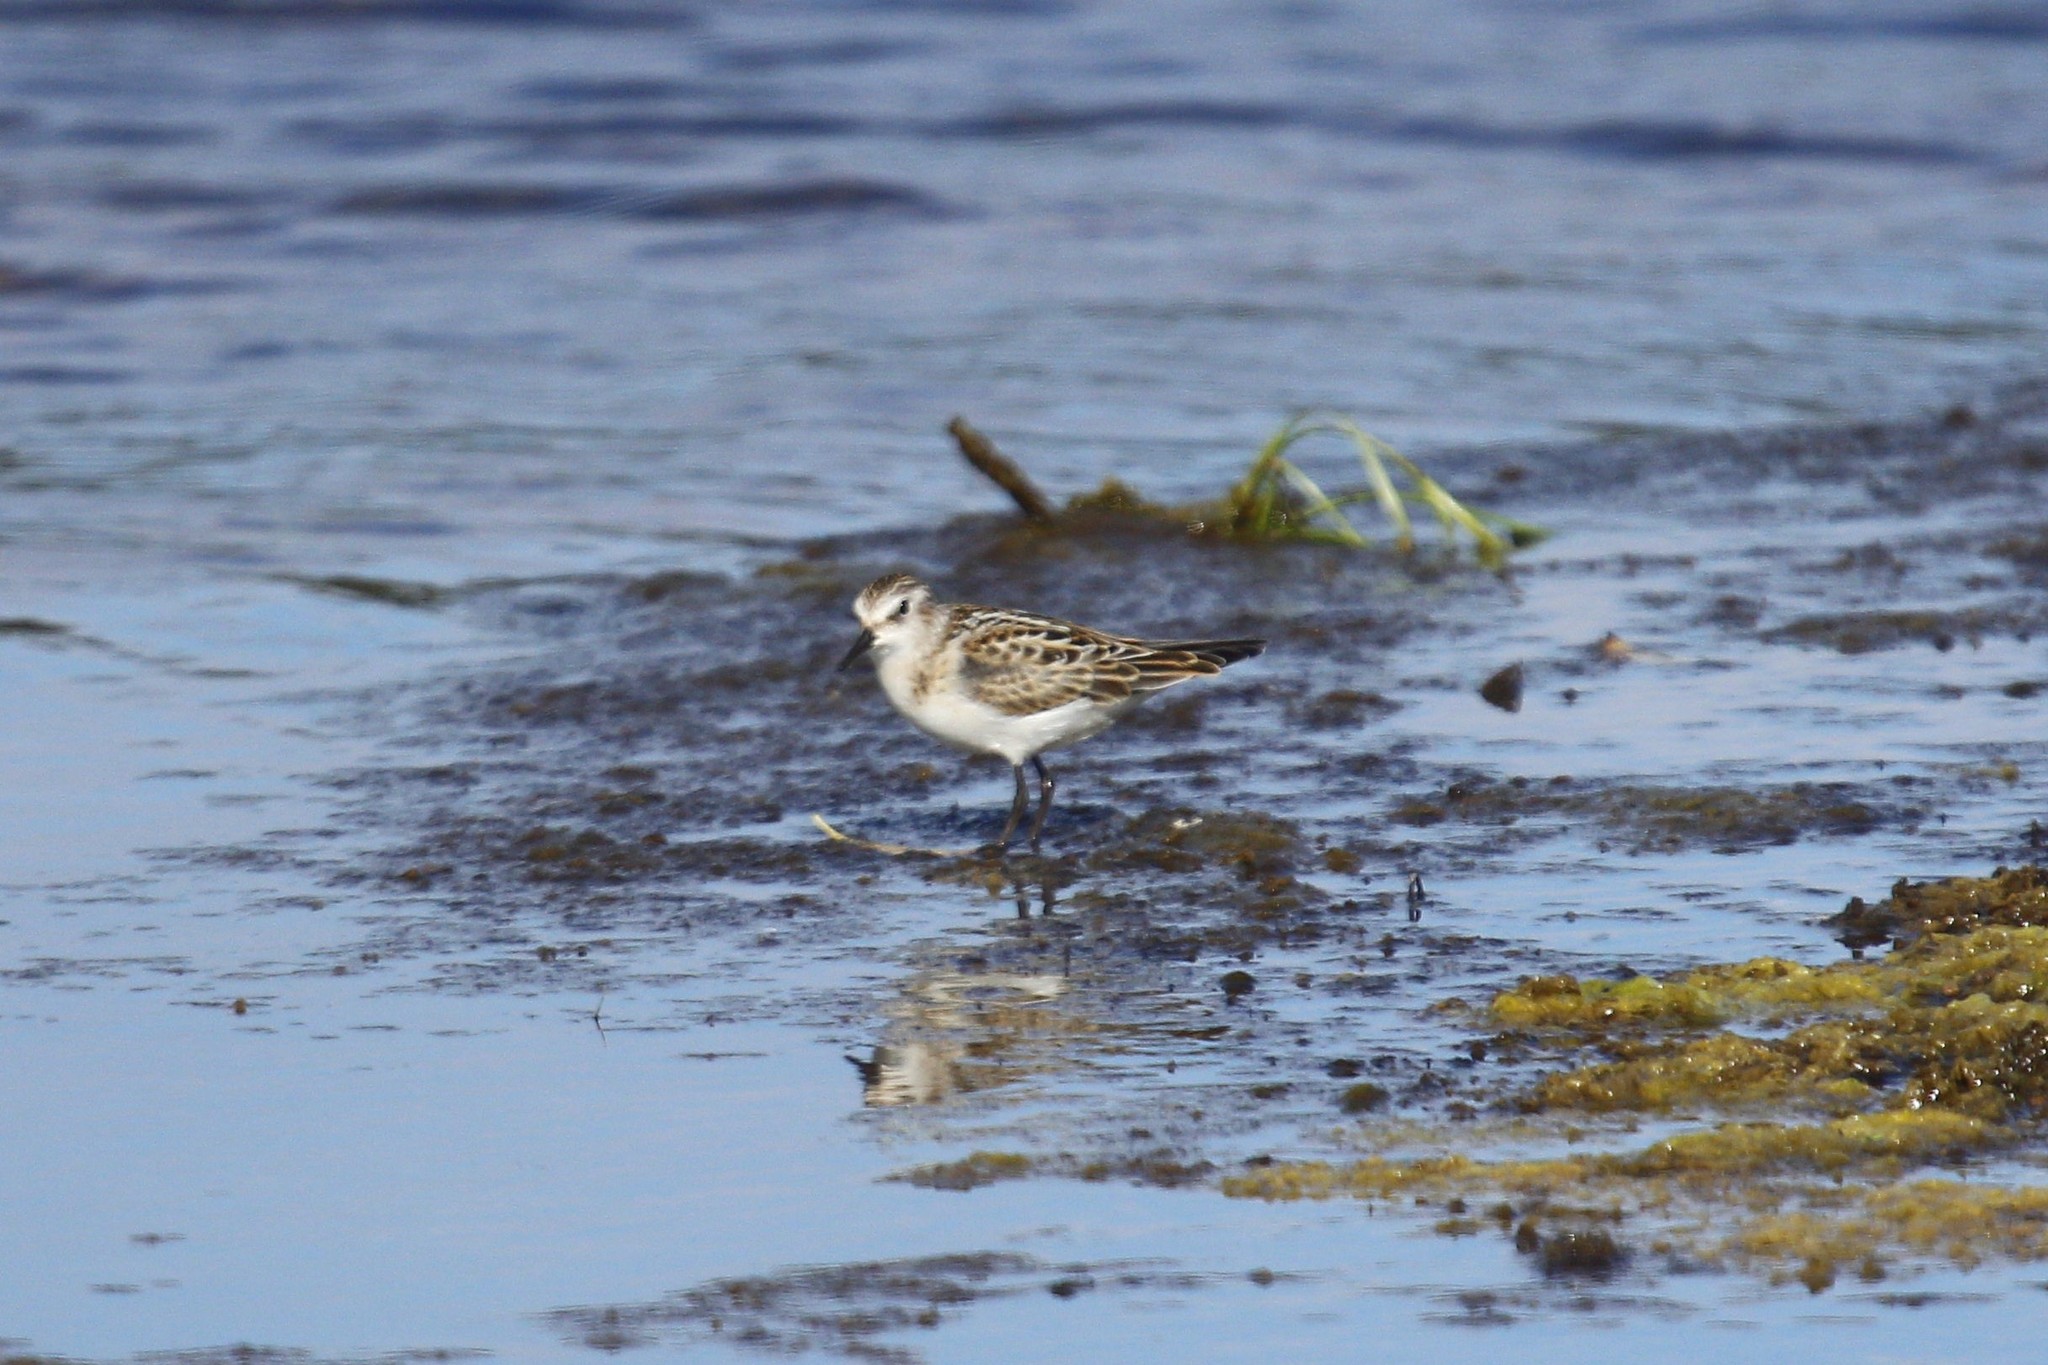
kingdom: Animalia
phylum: Chordata
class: Aves
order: Charadriiformes
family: Scolopacidae
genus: Calidris
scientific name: Calidris minuta
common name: Little stint
